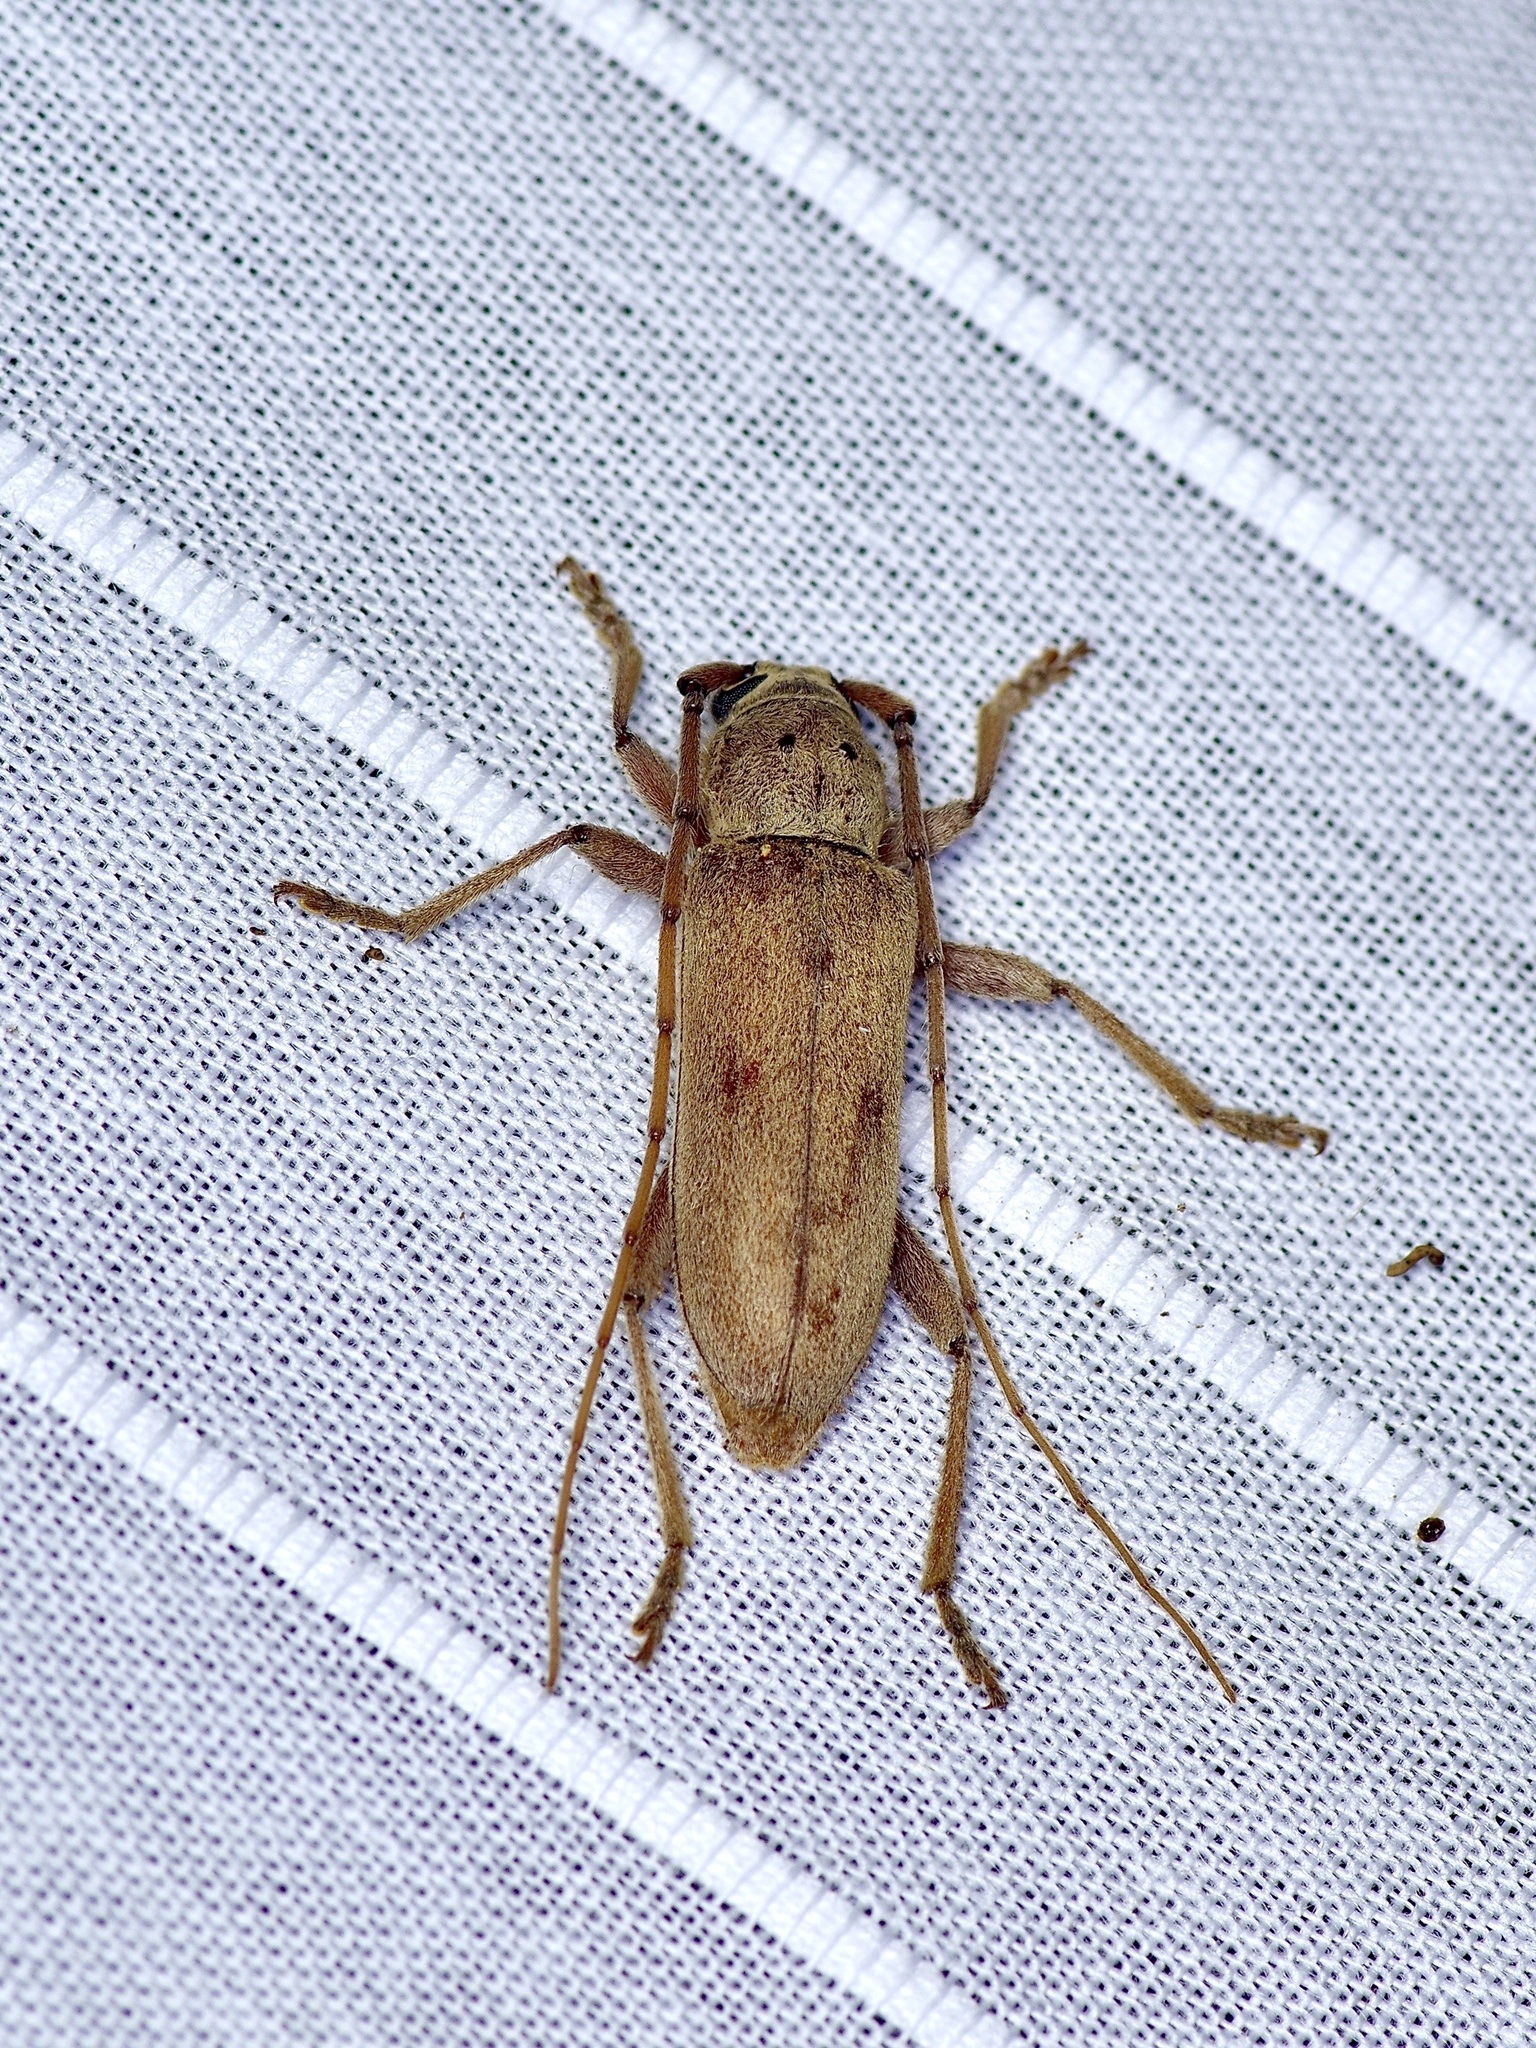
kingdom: Animalia
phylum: Arthropoda
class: Insecta
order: Coleoptera
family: Cerambycidae
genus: Eburia
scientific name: Eburia mutica
